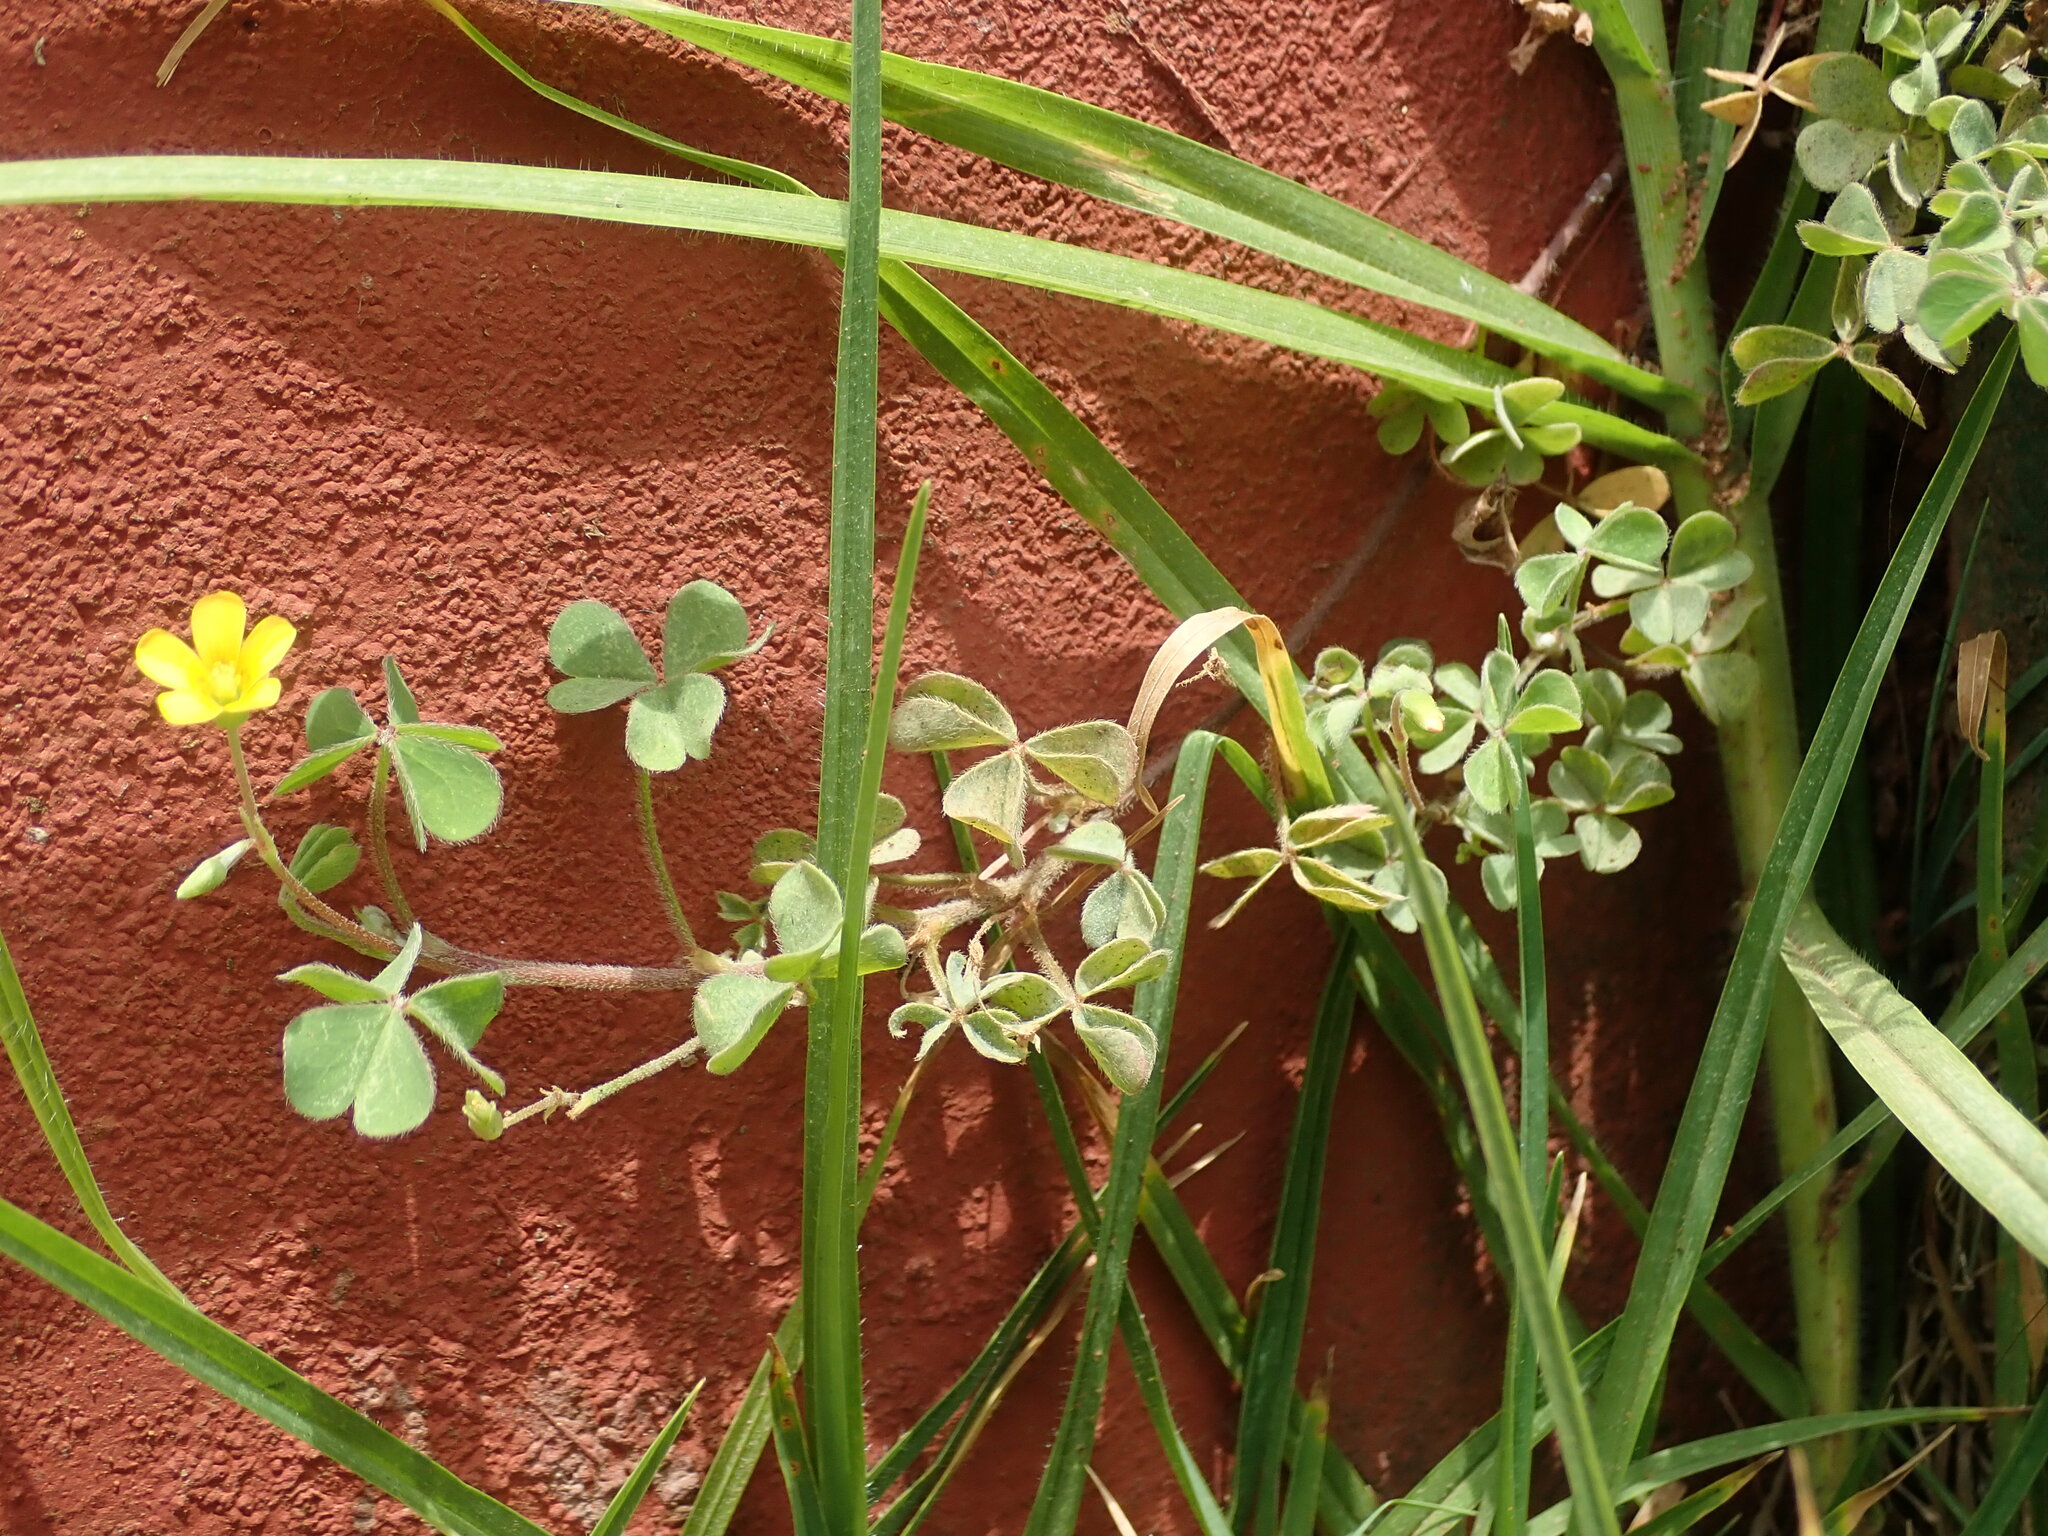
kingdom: Plantae
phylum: Tracheophyta
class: Magnoliopsida
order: Oxalidales
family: Oxalidaceae
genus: Oxalis
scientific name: Oxalis corniculata
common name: Procumbent yellow-sorrel
